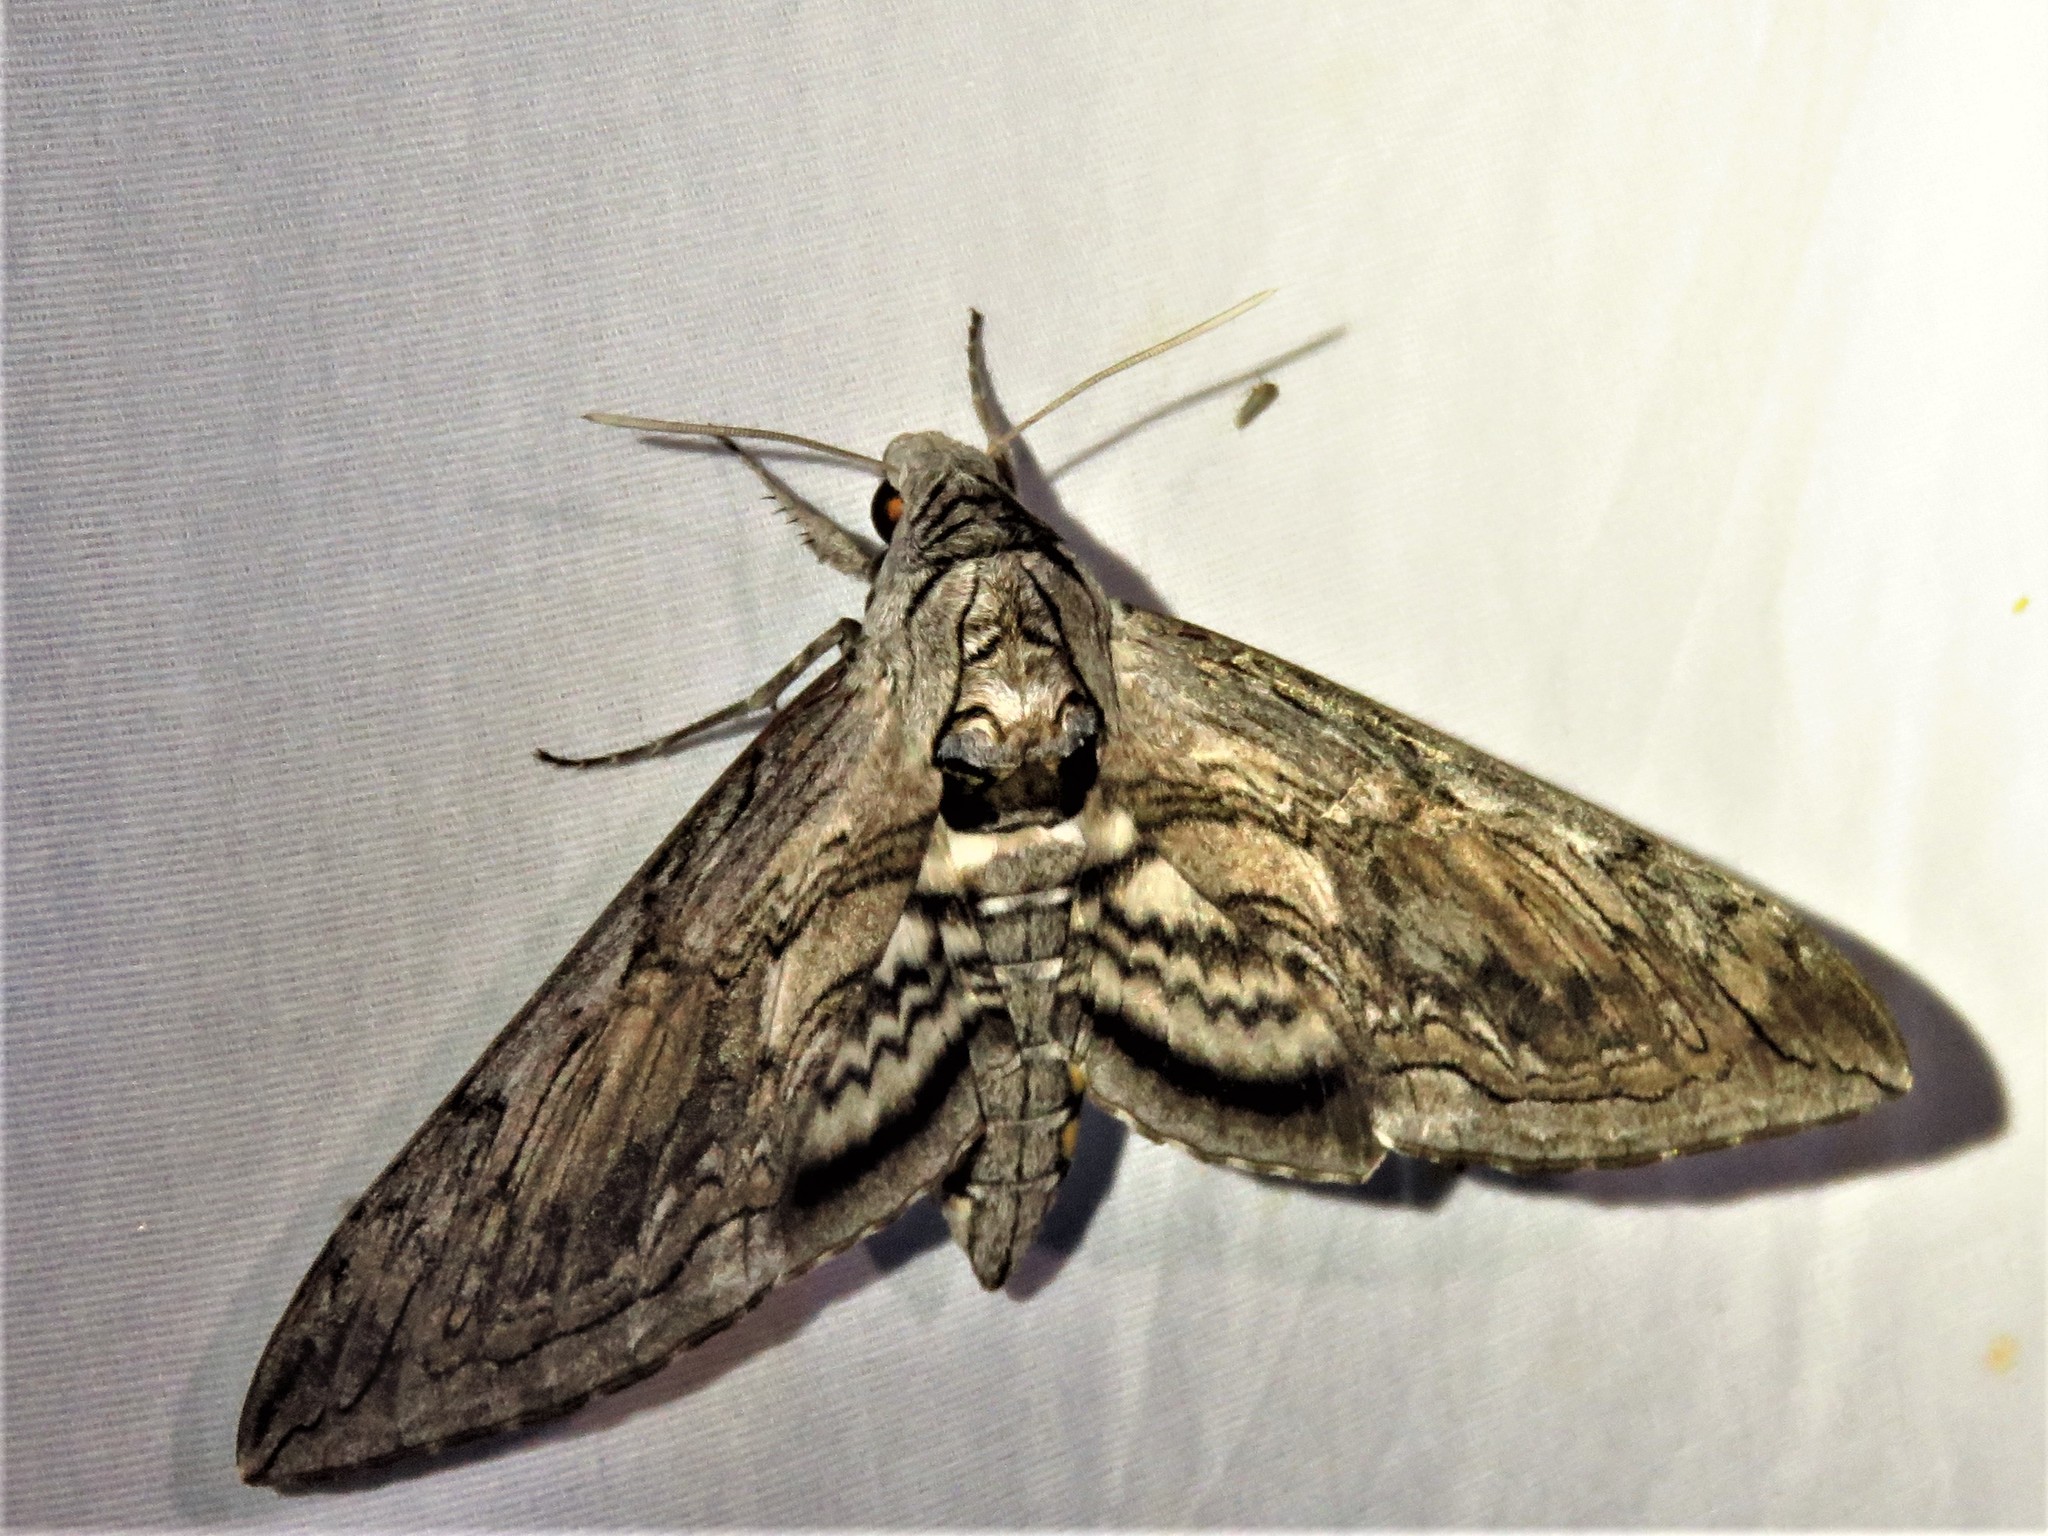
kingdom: Animalia
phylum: Arthropoda
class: Insecta
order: Lepidoptera
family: Sphingidae
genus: Manduca
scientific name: Manduca quinquemaculatus
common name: Five-spotted hawk-moth
